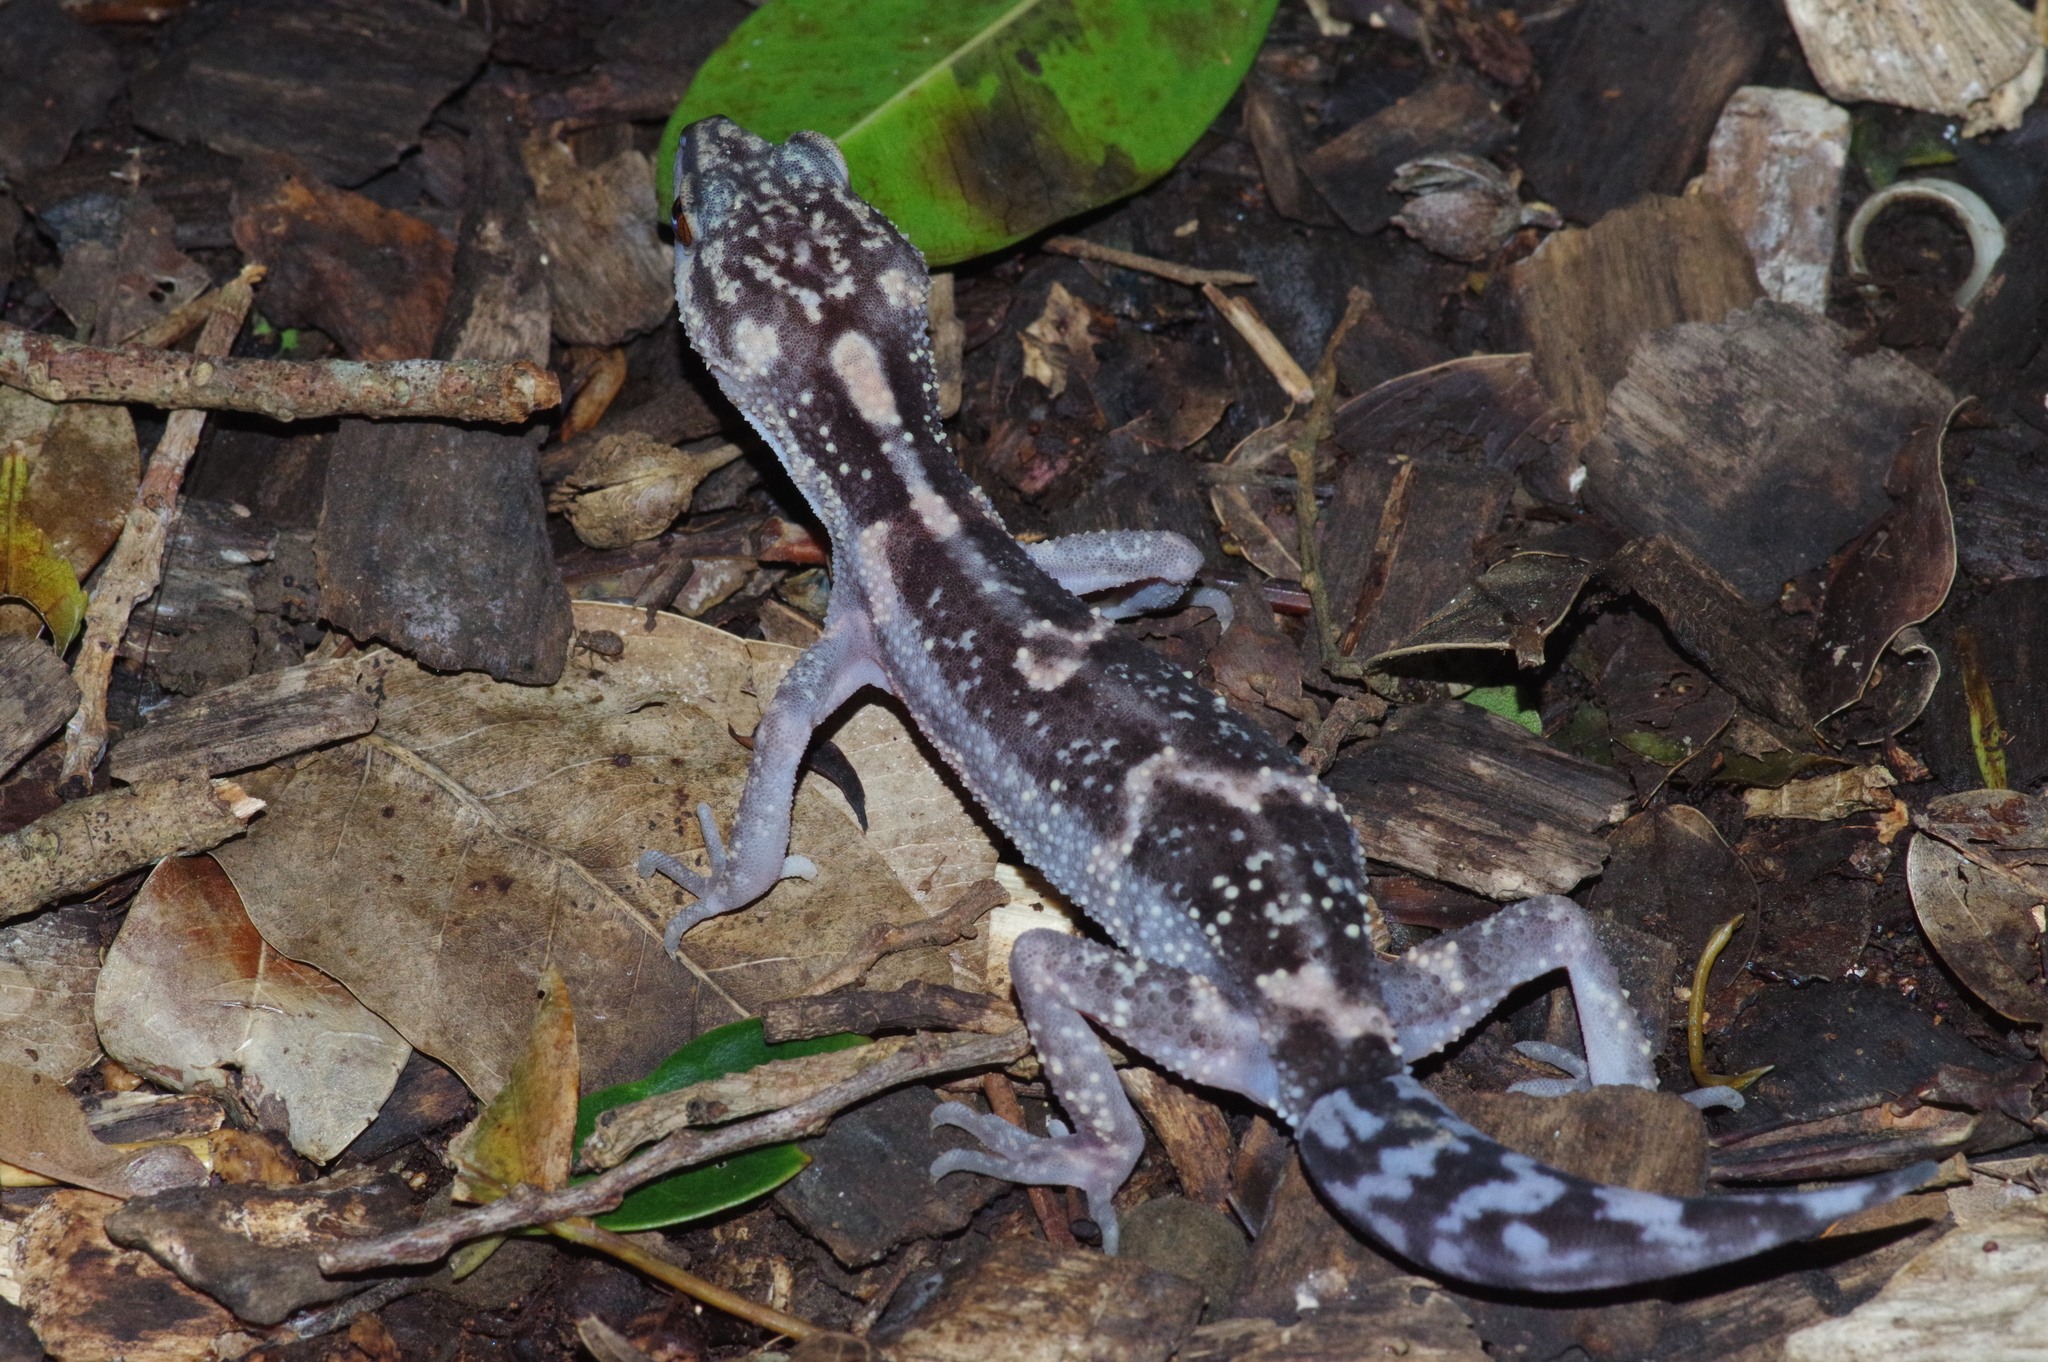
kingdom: Animalia
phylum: Chordata
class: Squamata
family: Eublepharidae
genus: Goniurosaurus
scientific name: Goniurosaurus kuroiwae
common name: Tokashiki gecko
